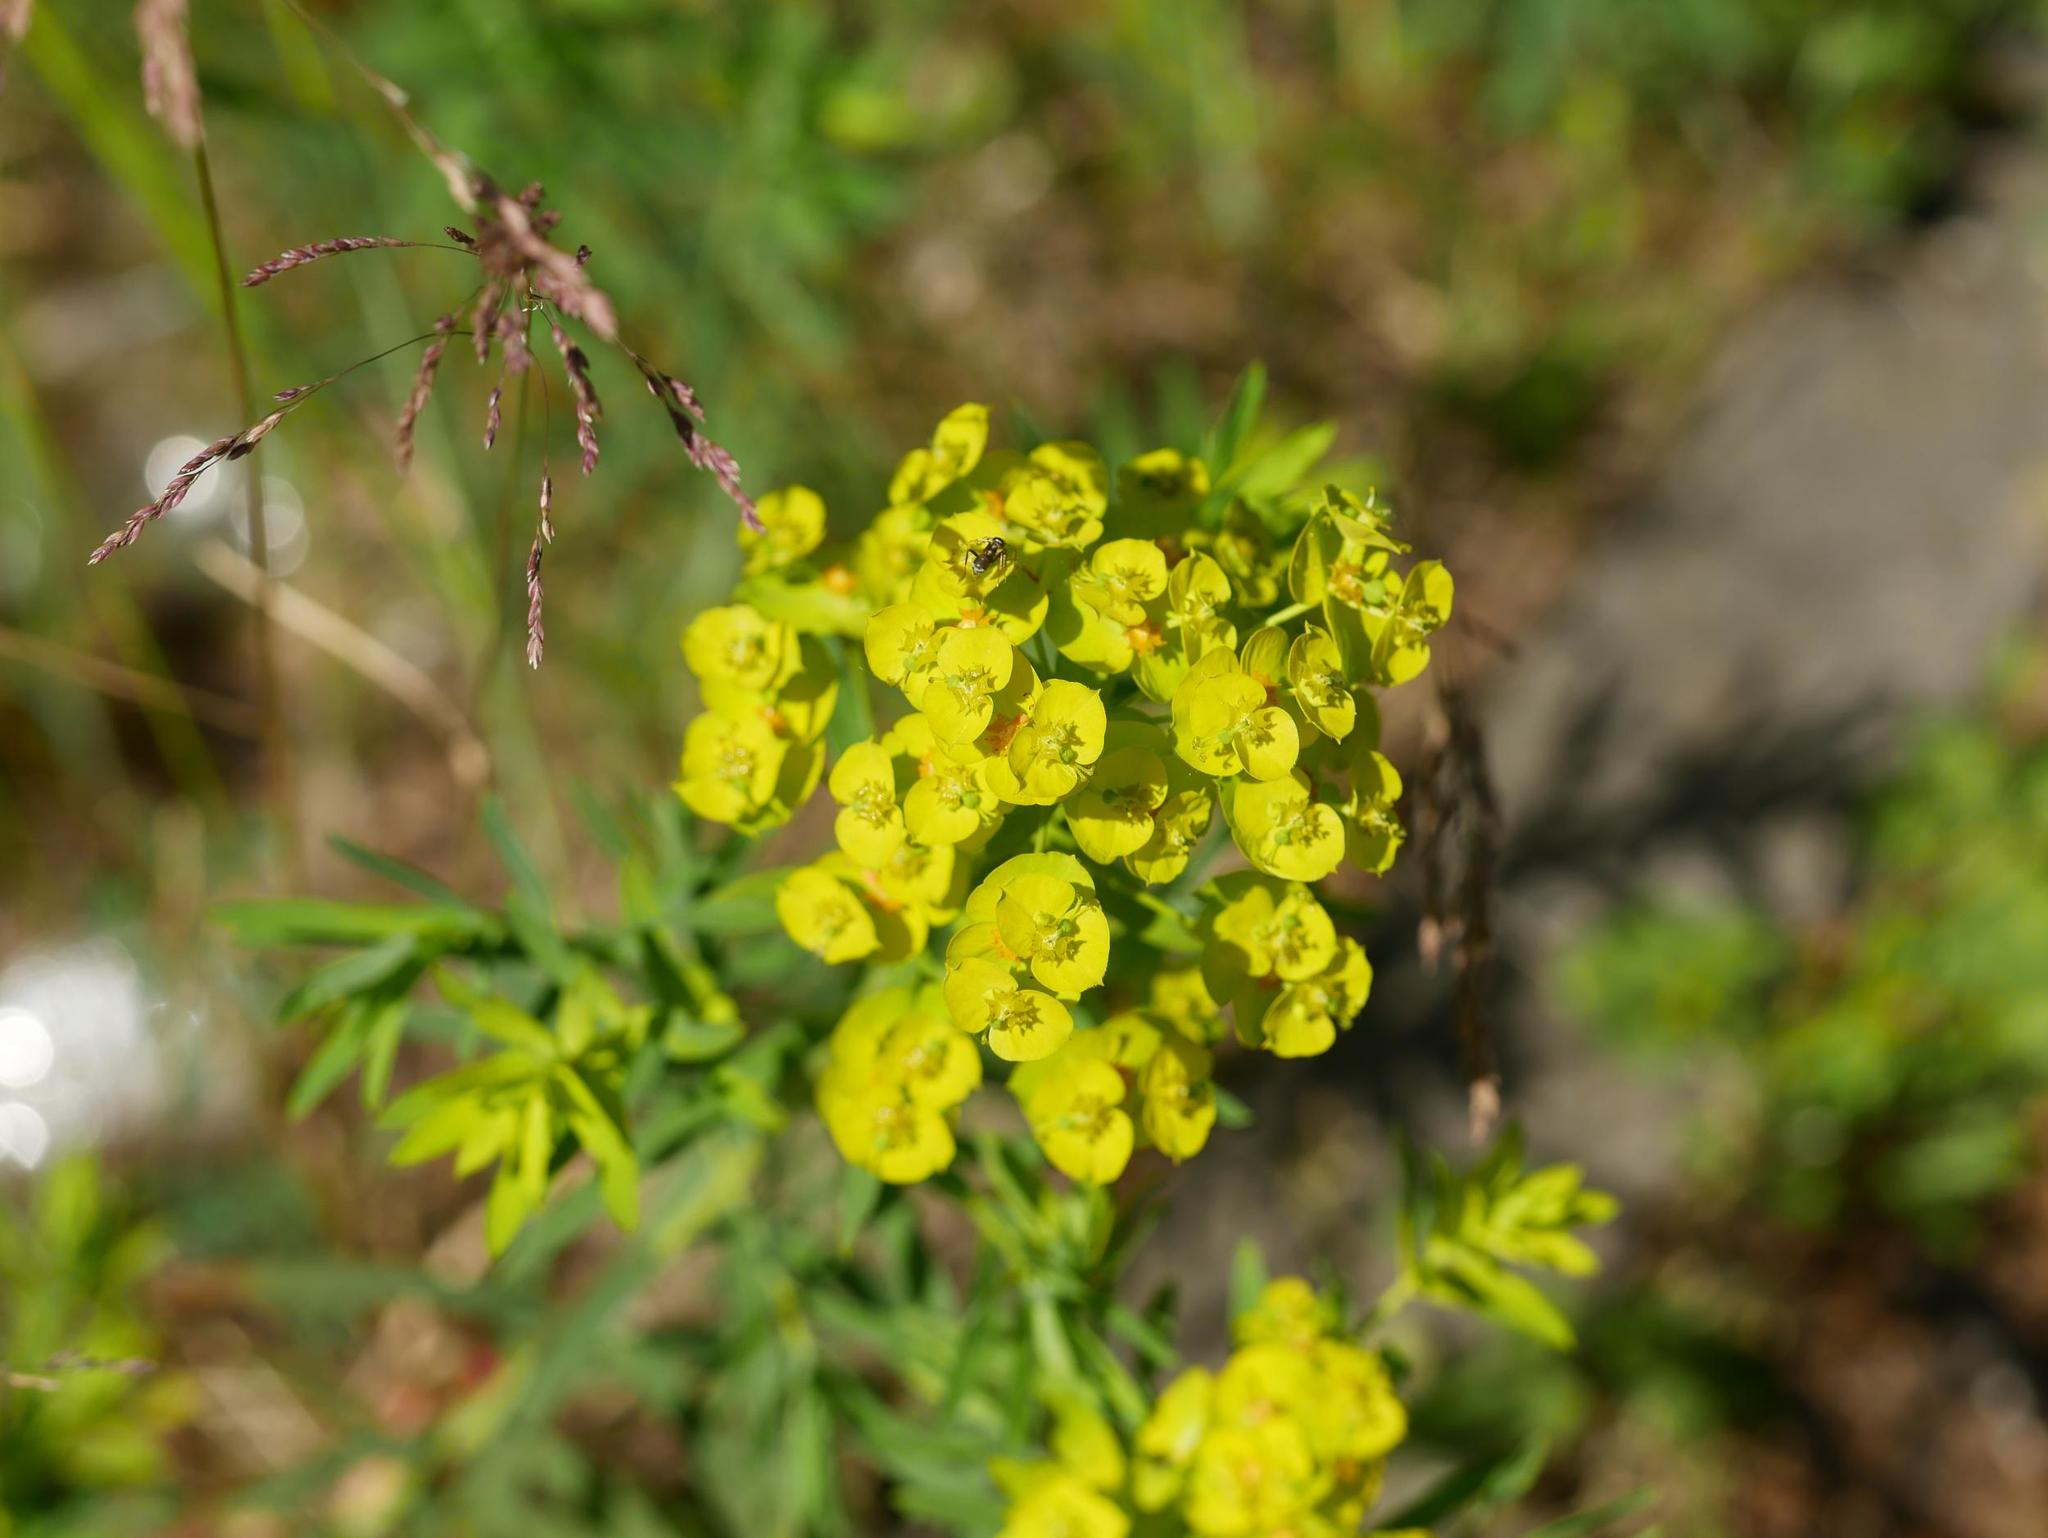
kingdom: Plantae
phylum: Tracheophyta
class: Magnoliopsida
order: Malpighiales
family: Euphorbiaceae
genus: Euphorbia
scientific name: Euphorbia cyparissias
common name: Cypress spurge
